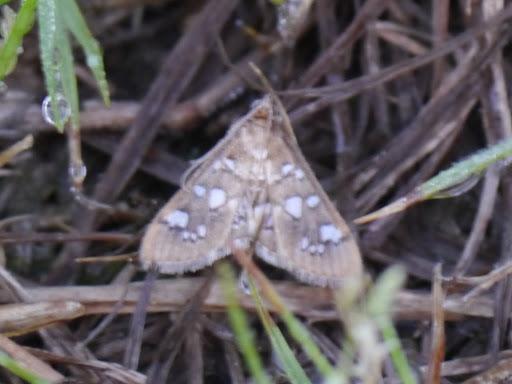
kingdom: Animalia
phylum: Arthropoda
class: Insecta
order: Lepidoptera
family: Crambidae
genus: Samea
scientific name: Samea baccatalis
